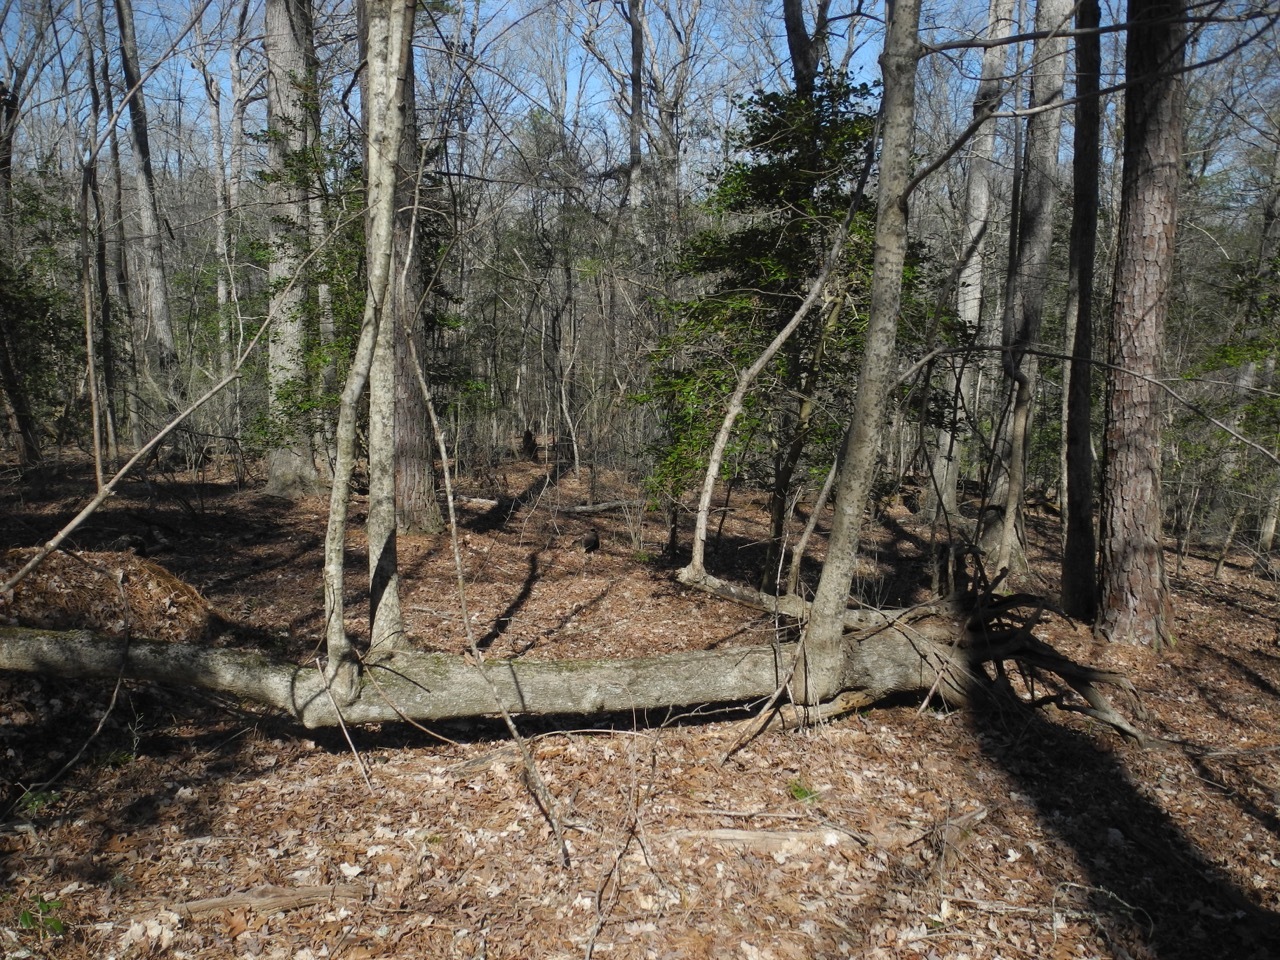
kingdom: Plantae
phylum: Tracheophyta
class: Magnoliopsida
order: Sapindales
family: Sapindaceae
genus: Acer
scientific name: Acer floridanum
